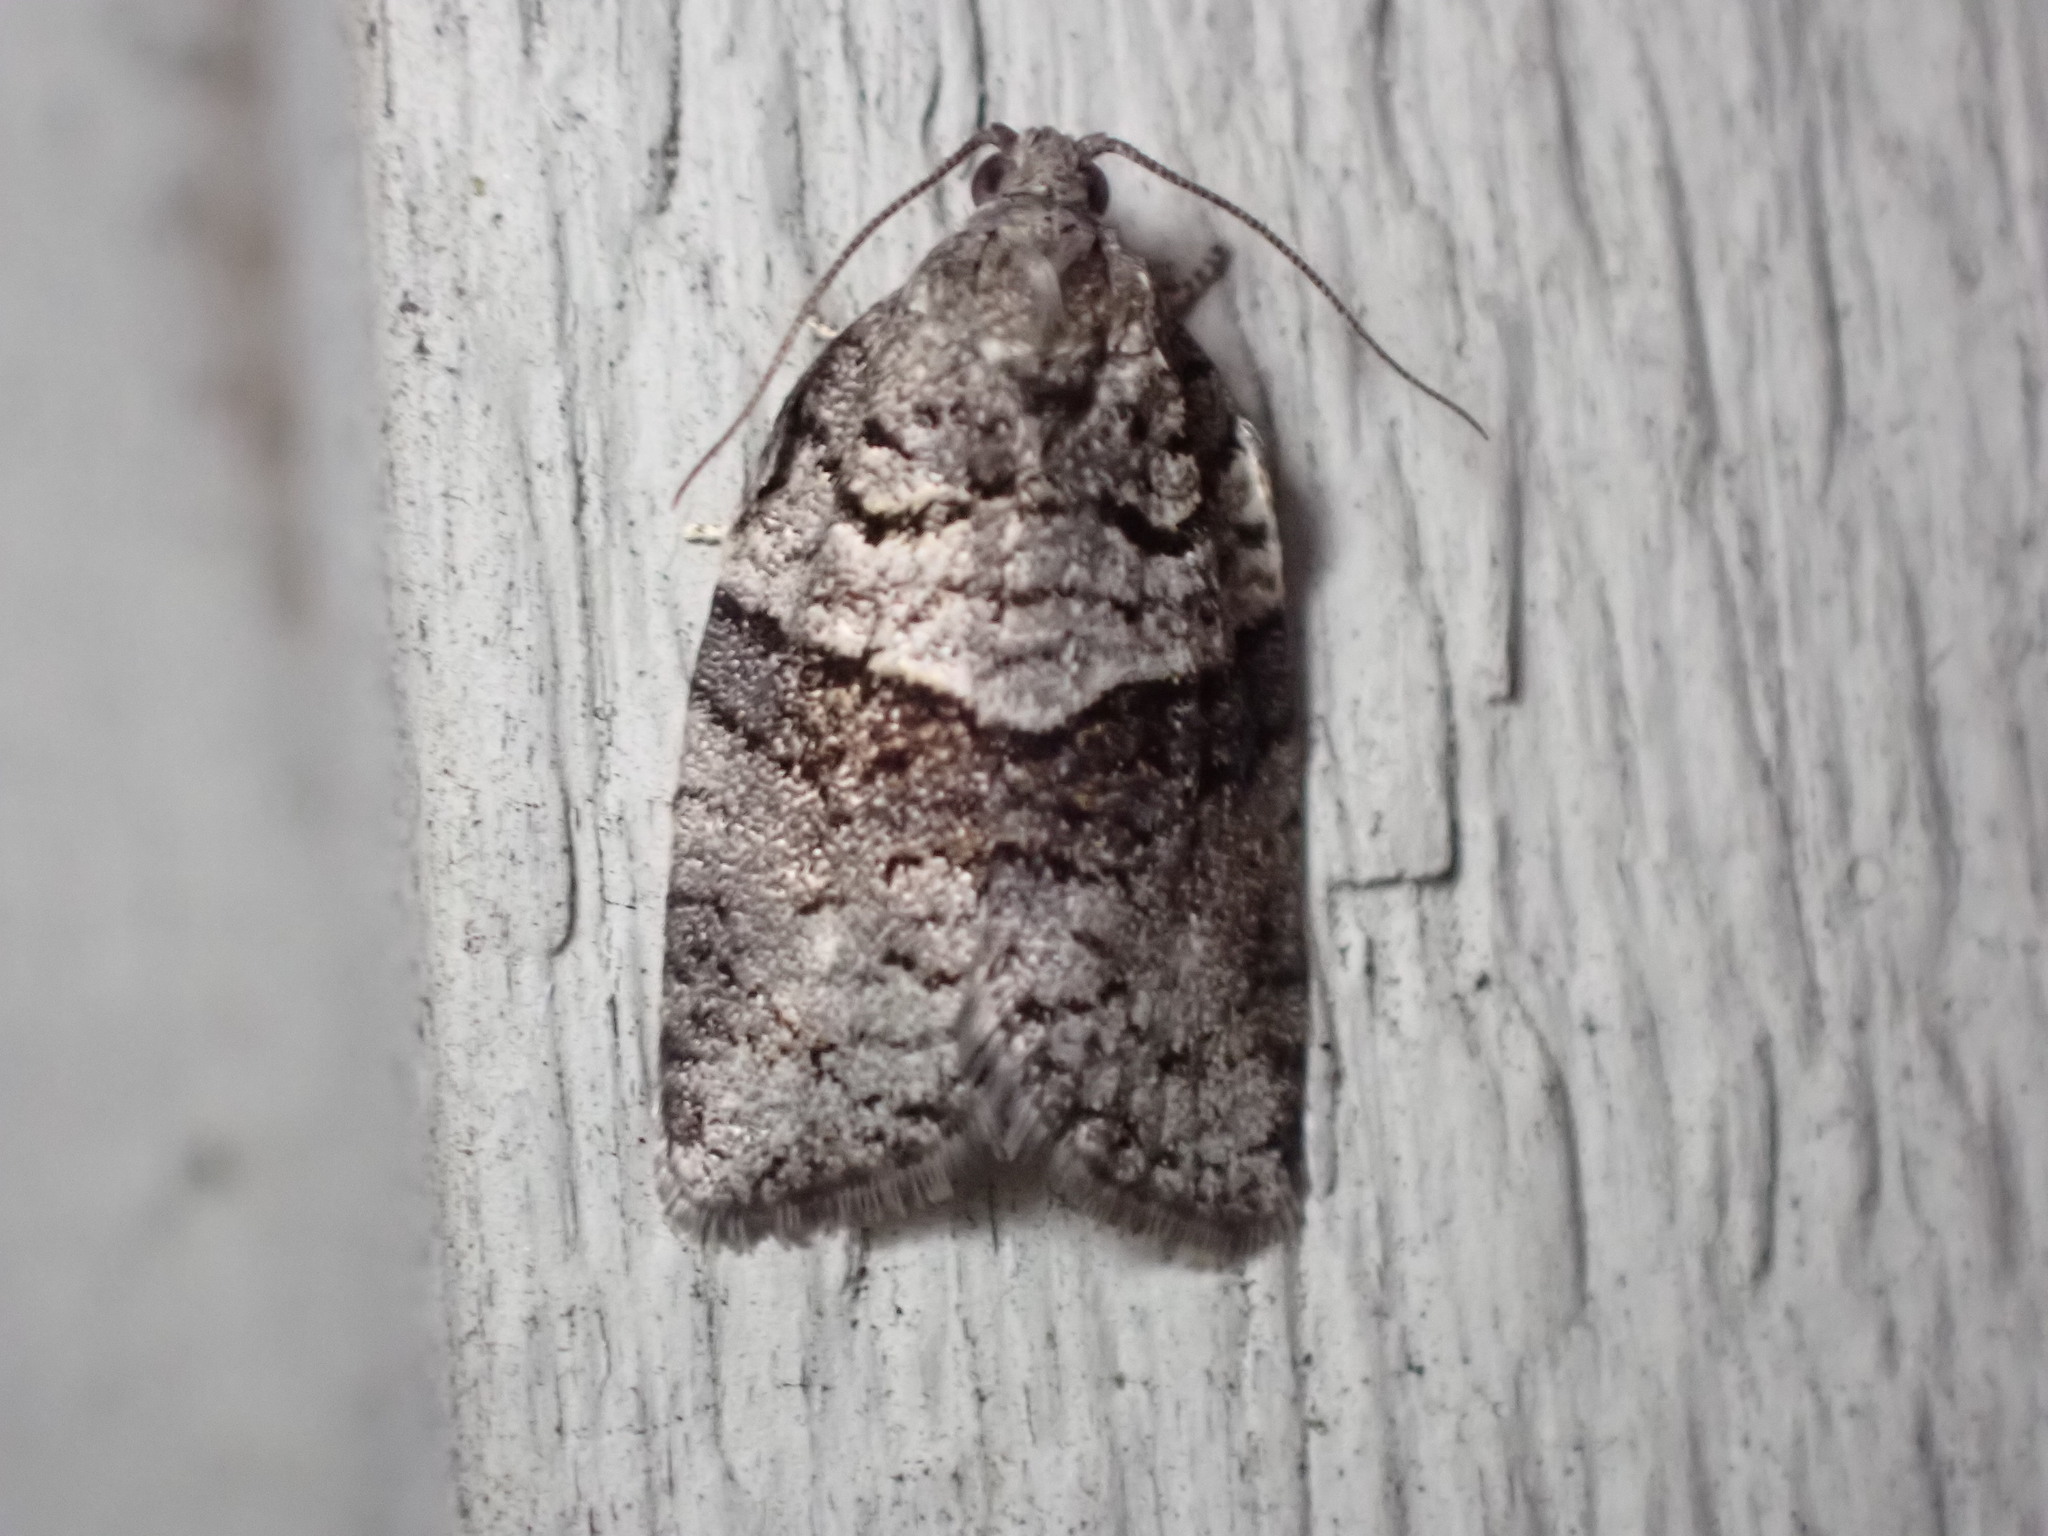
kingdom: Animalia
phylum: Arthropoda
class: Insecta
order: Lepidoptera
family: Tortricidae
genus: Syndemis
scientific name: Syndemis afflictana
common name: Gray leafroller moth
